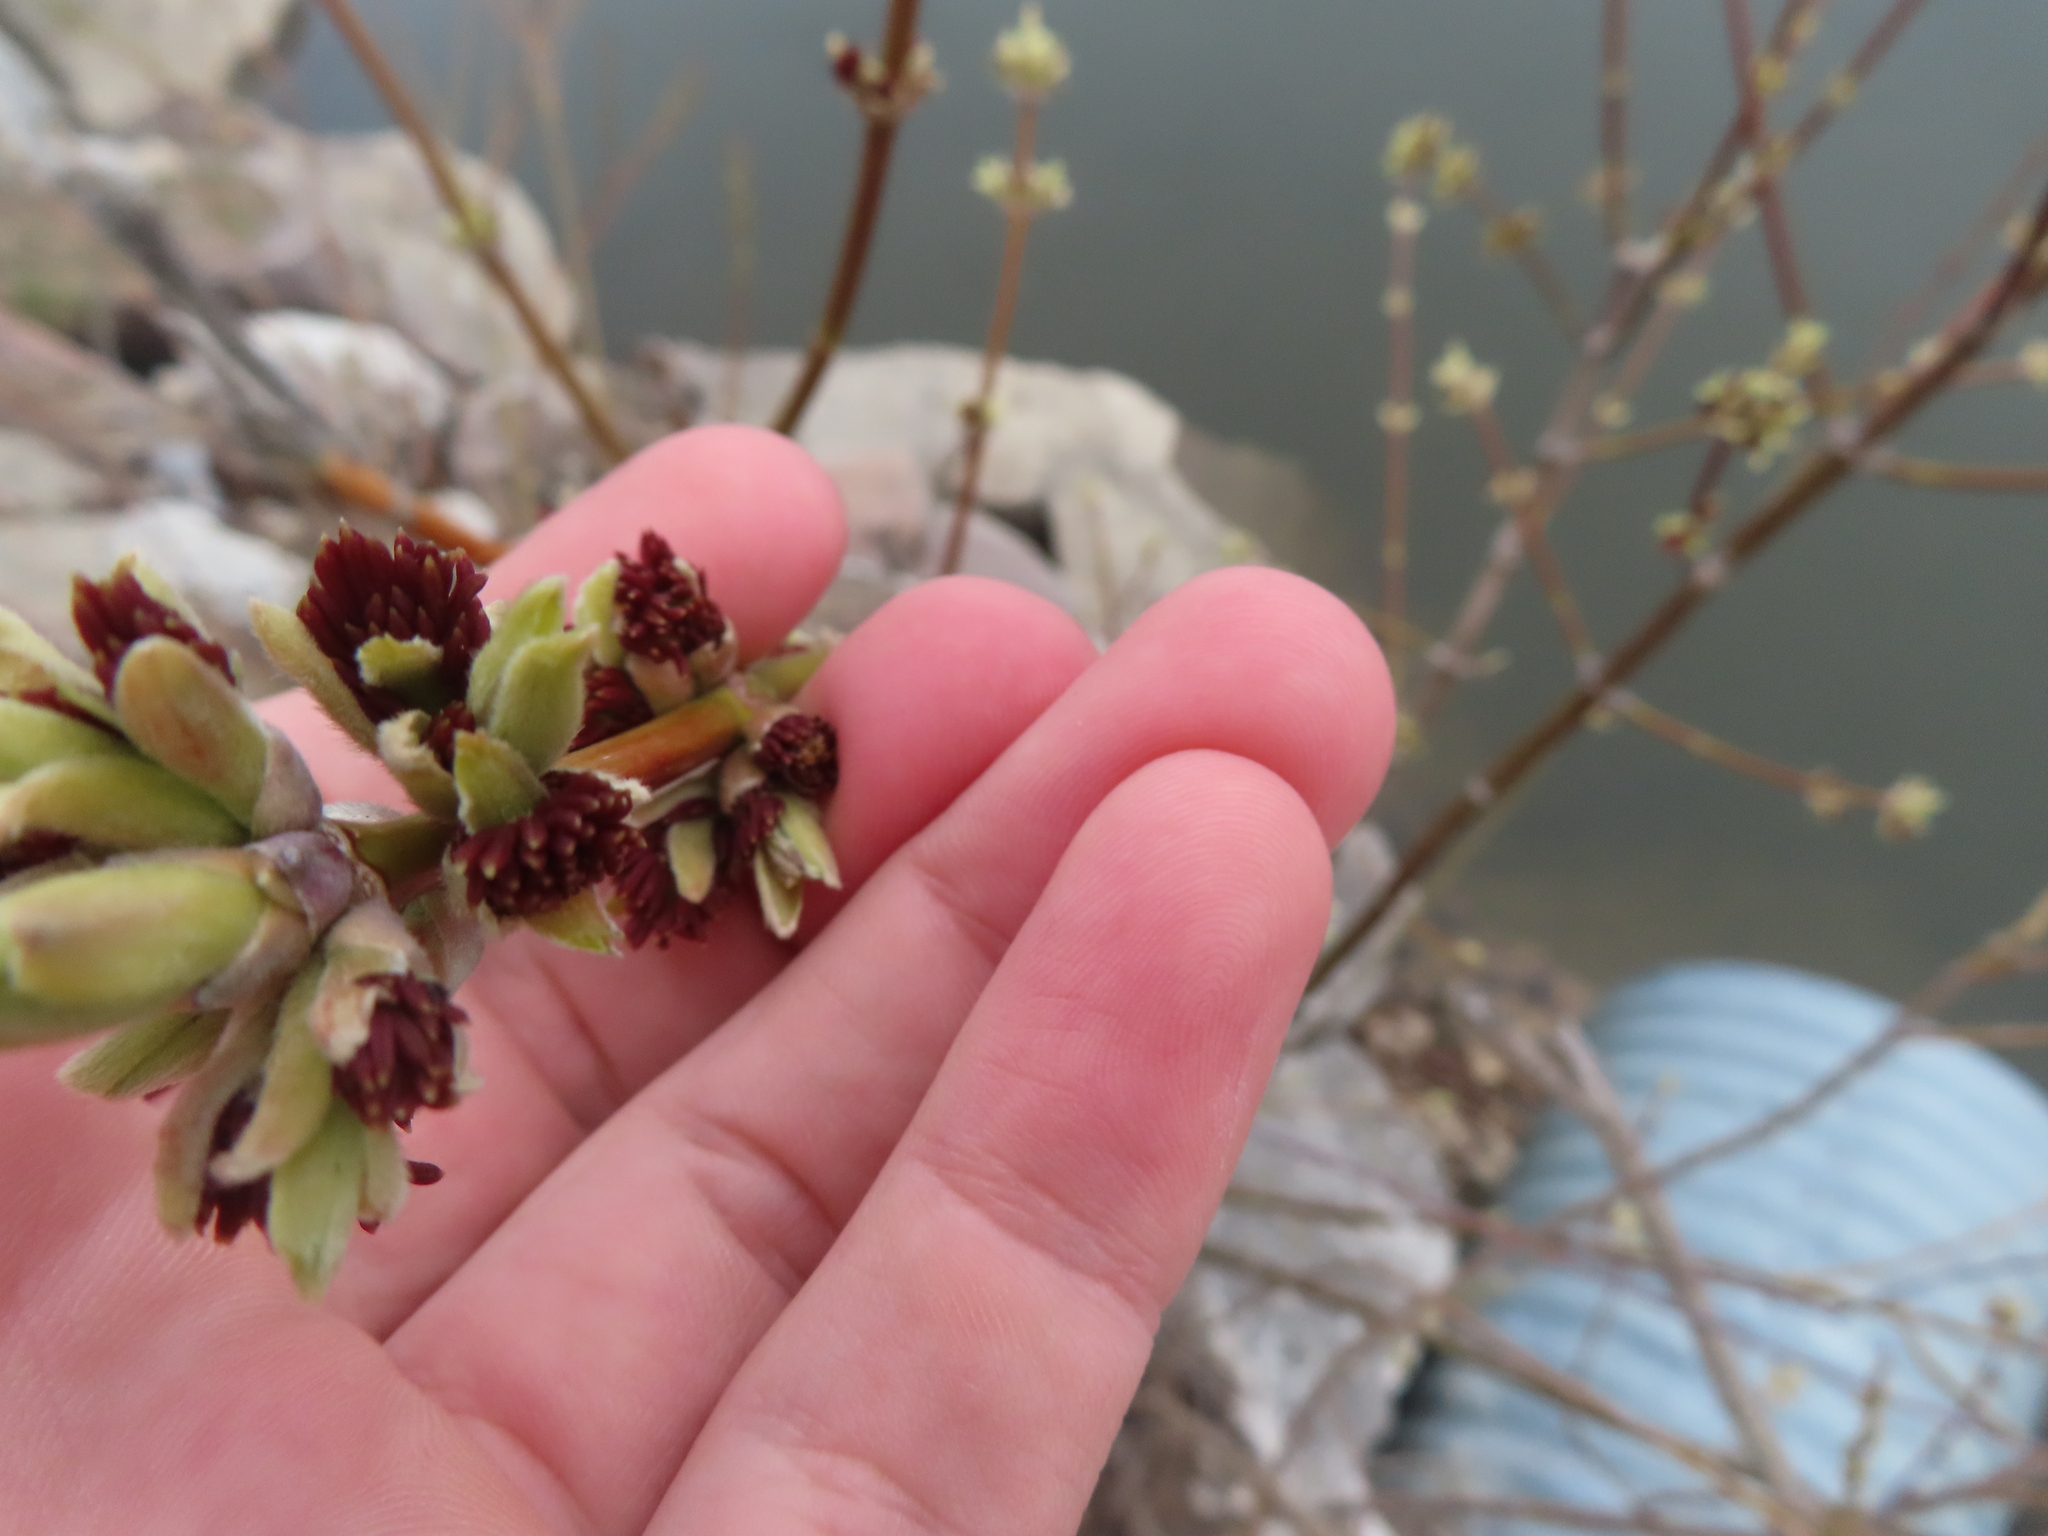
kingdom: Plantae
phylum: Tracheophyta
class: Magnoliopsida
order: Sapindales
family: Sapindaceae
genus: Acer
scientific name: Acer negundo
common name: Ashleaf maple
